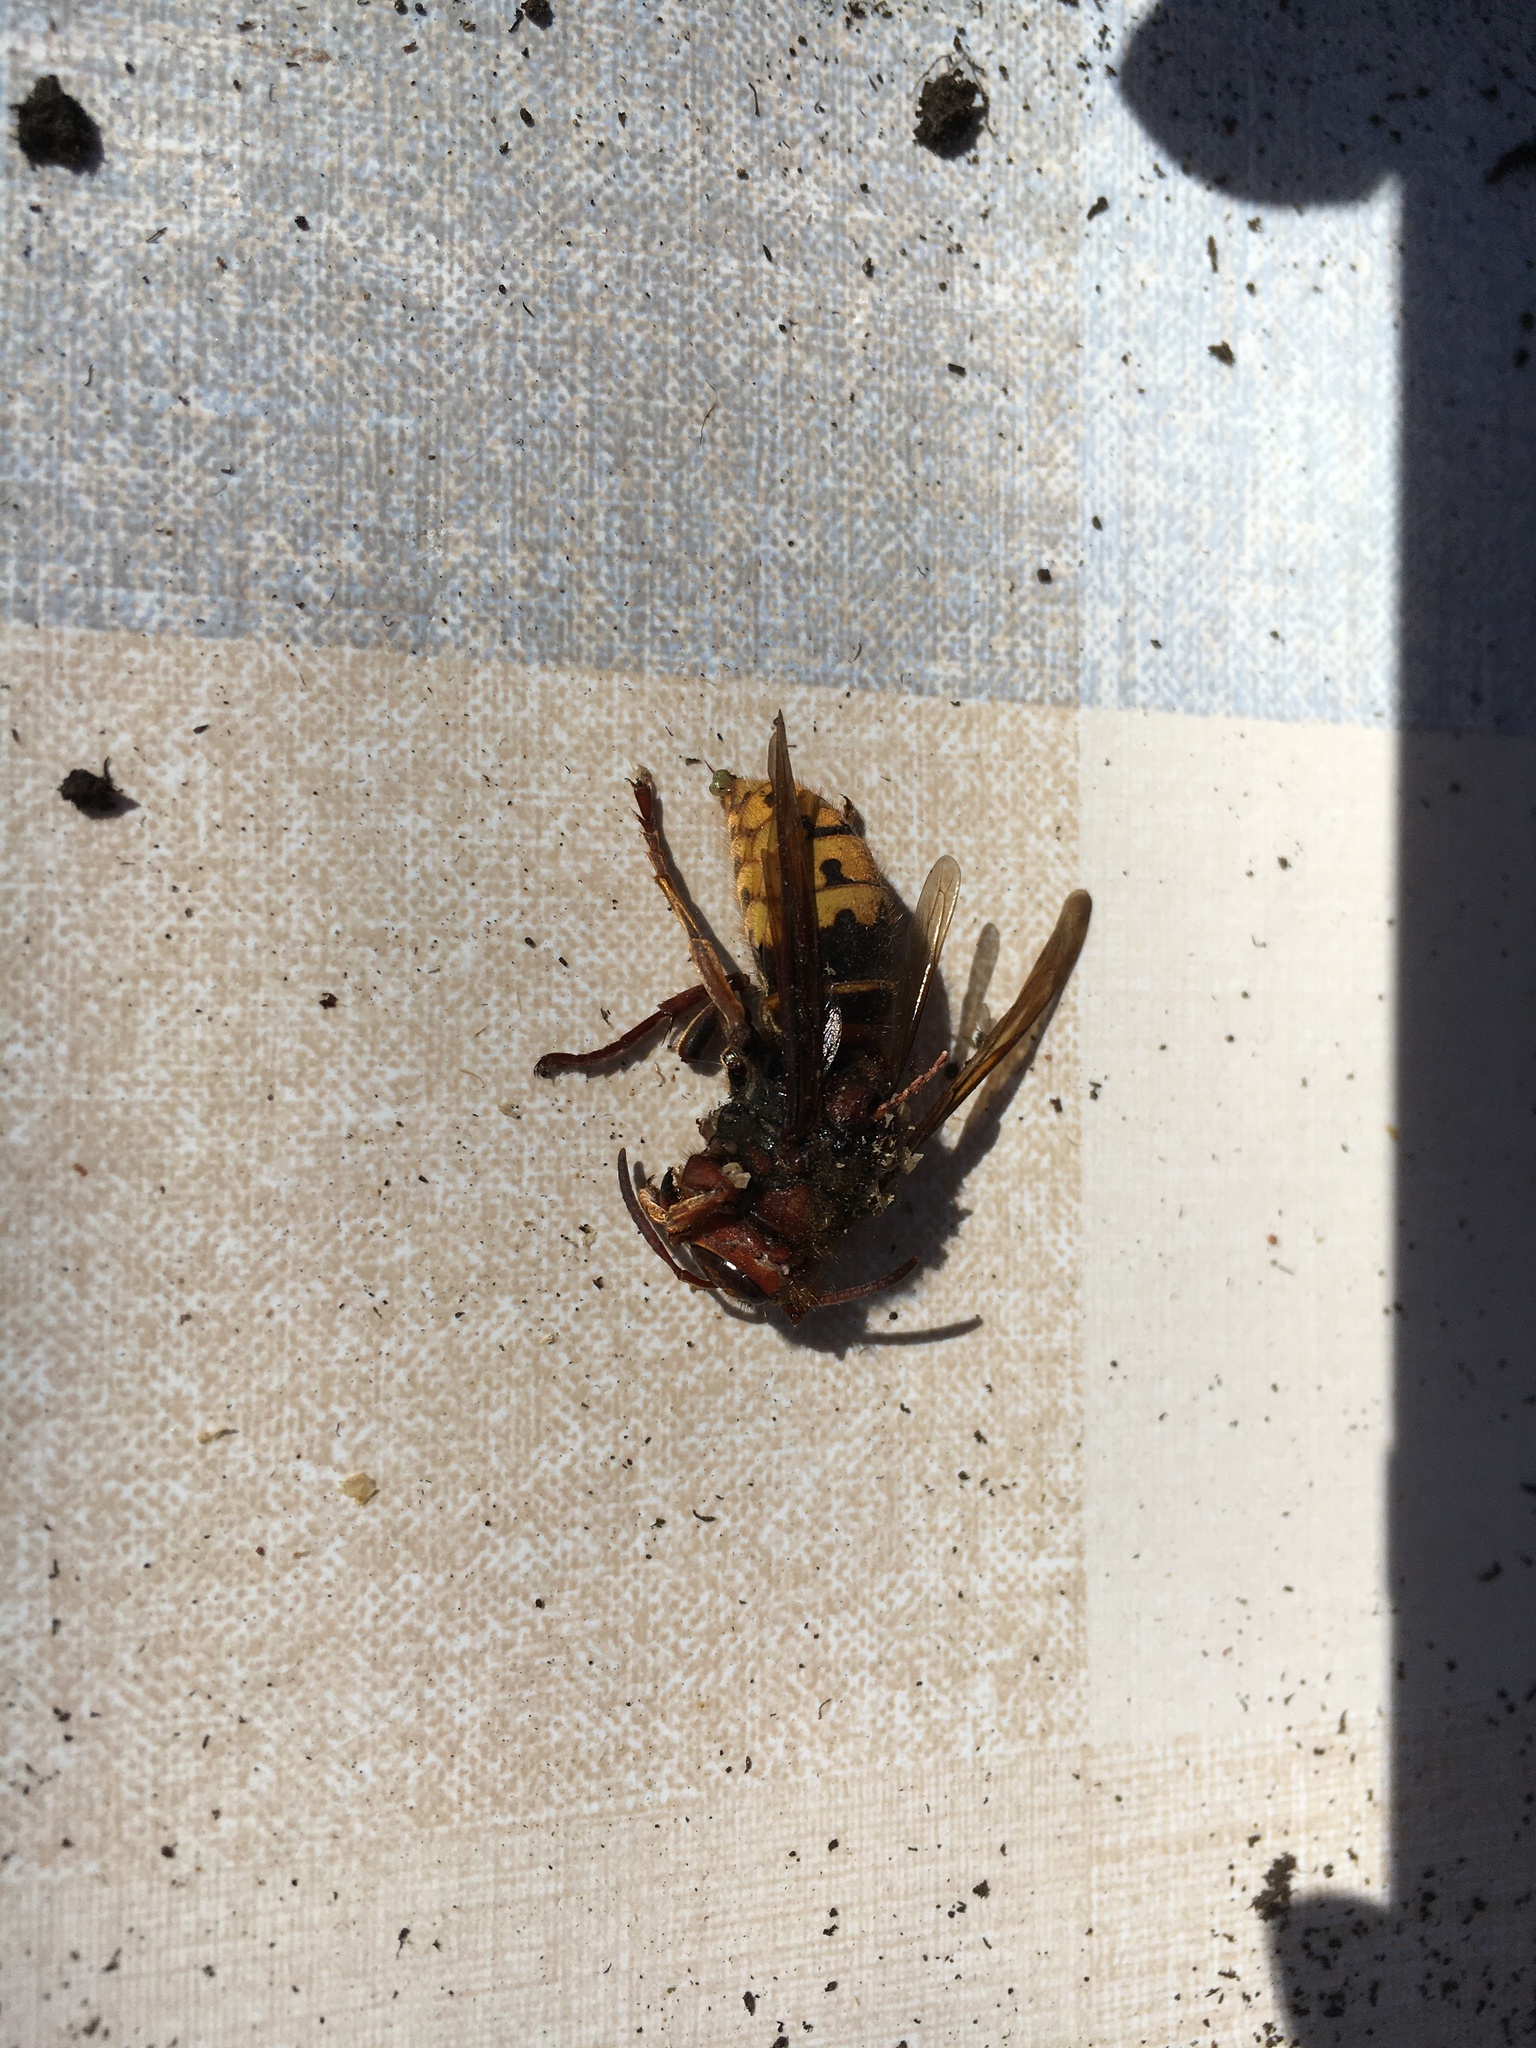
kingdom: Animalia
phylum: Arthropoda
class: Insecta
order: Hymenoptera
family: Vespidae
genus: Vespa
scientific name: Vespa crabro
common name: Hornet
